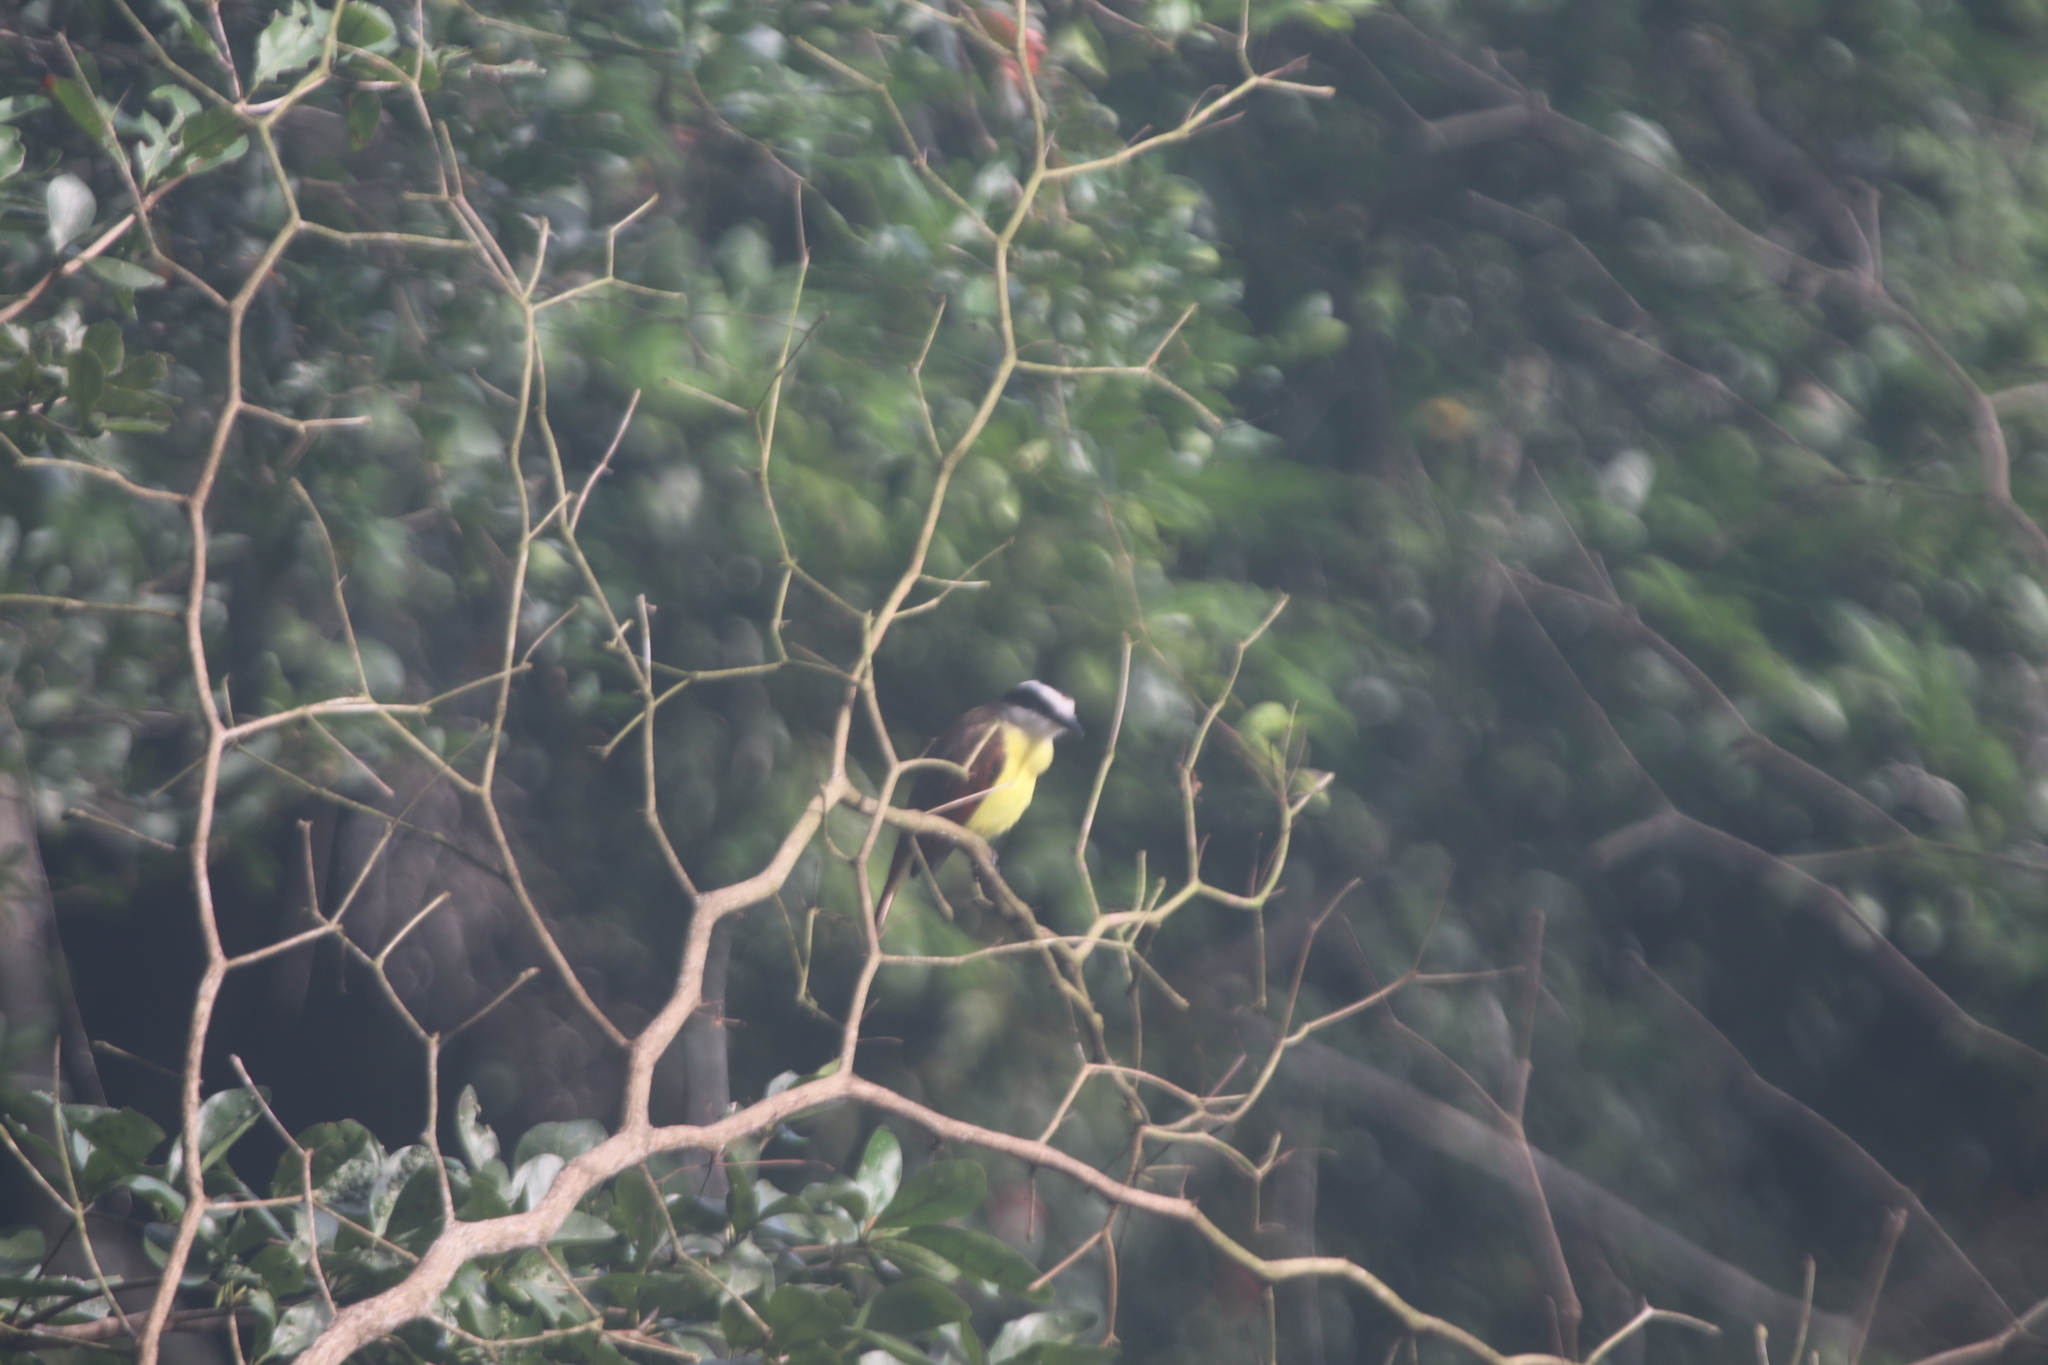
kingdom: Animalia
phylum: Chordata
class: Aves
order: Passeriformes
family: Tyrannidae
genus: Pitangus
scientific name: Pitangus sulphuratus
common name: Great kiskadee
